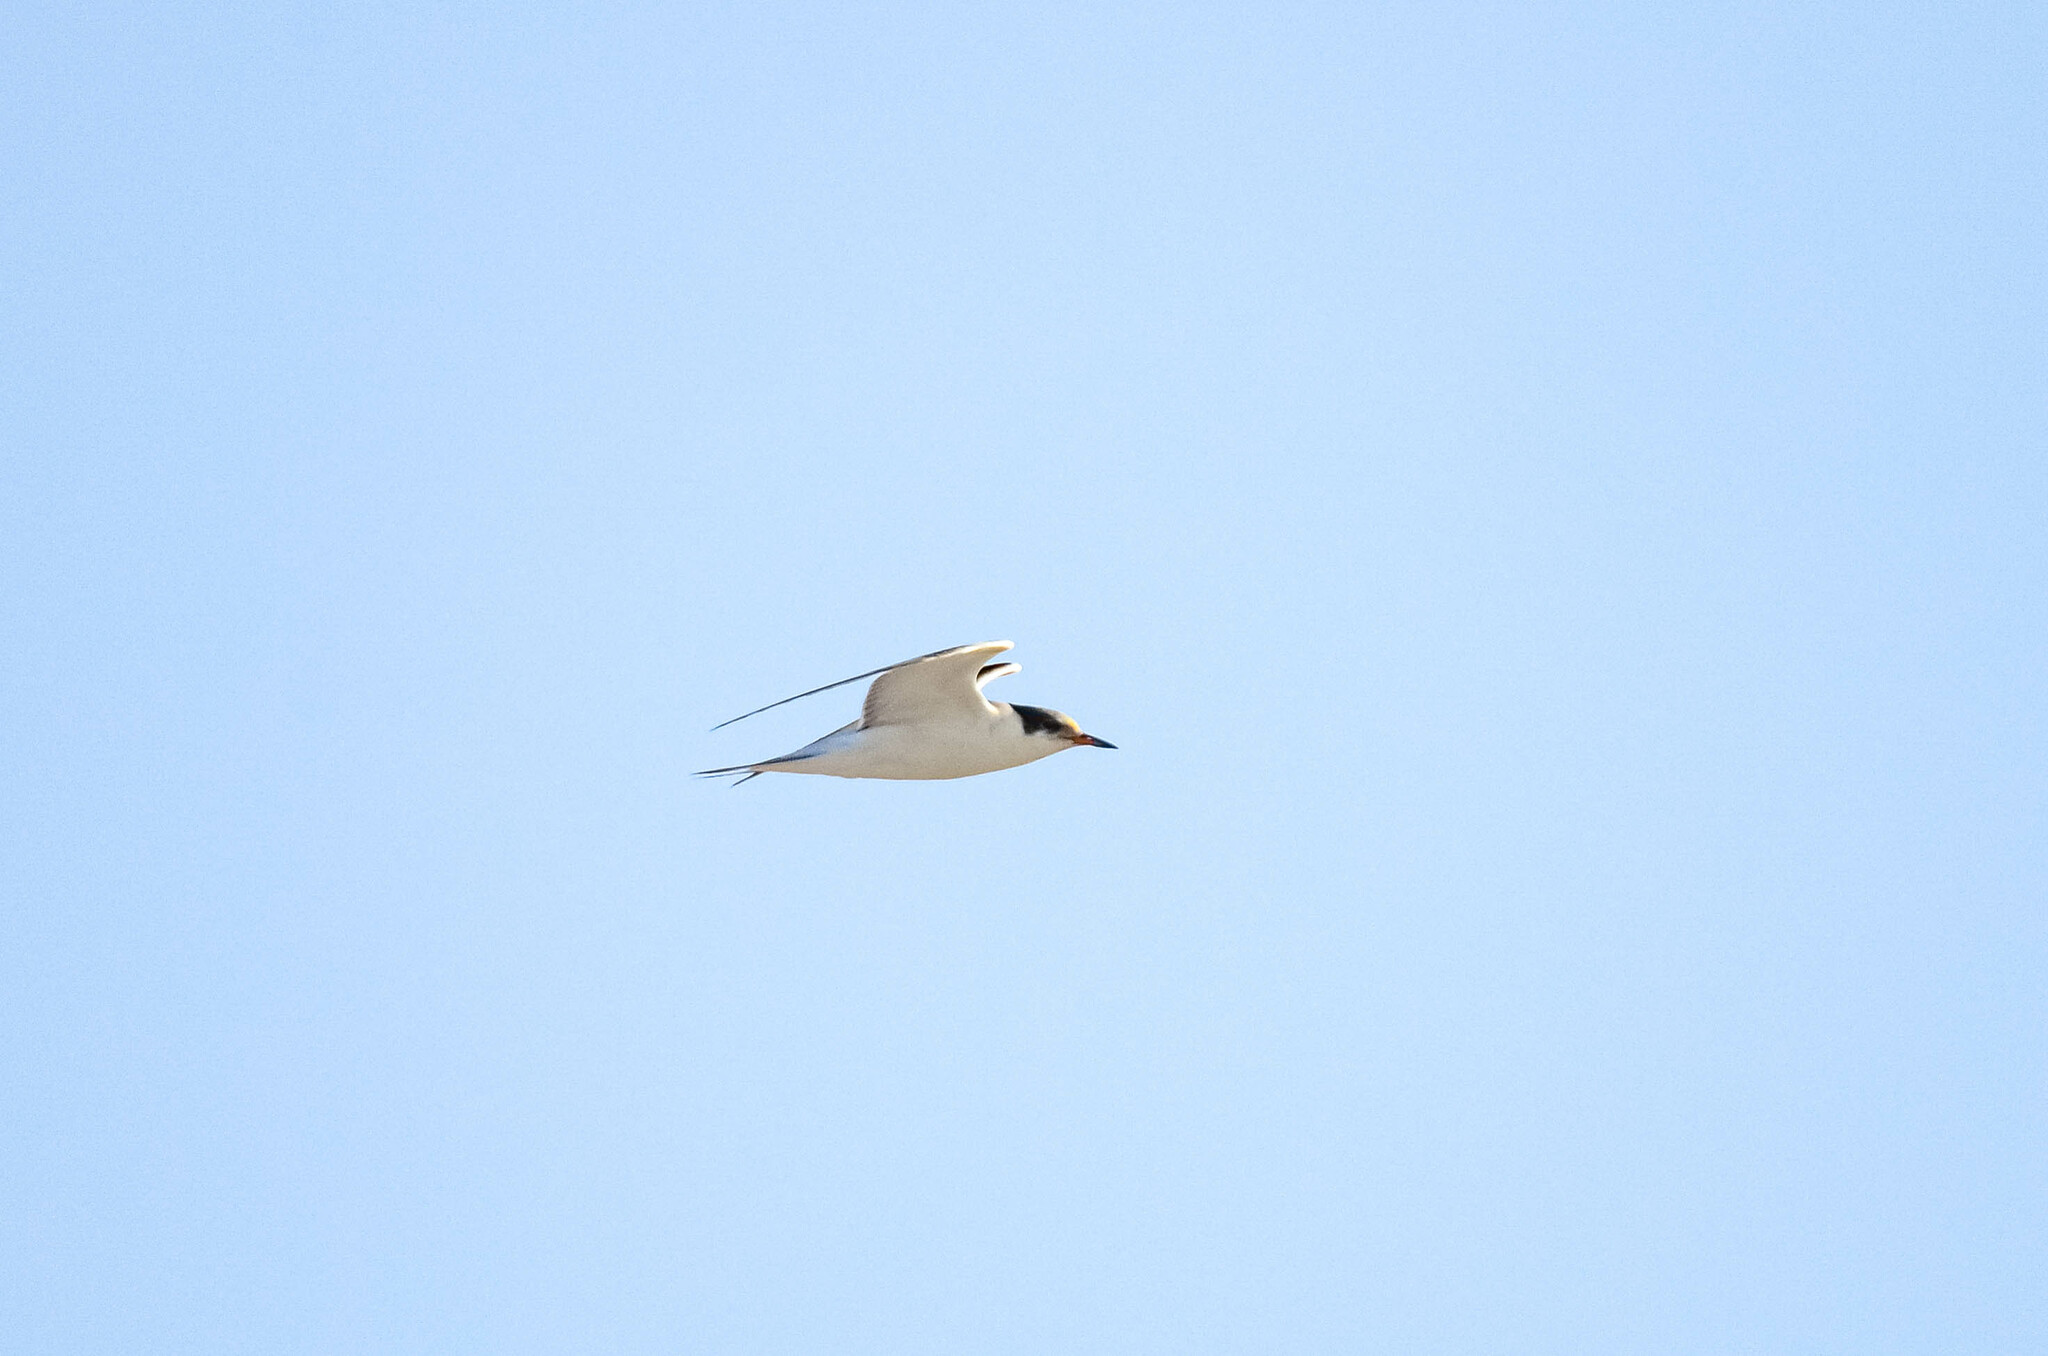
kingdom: Animalia
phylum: Chordata
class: Aves
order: Charadriiformes
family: Laridae
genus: Sterna
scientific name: Sterna hirundo
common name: Common tern
